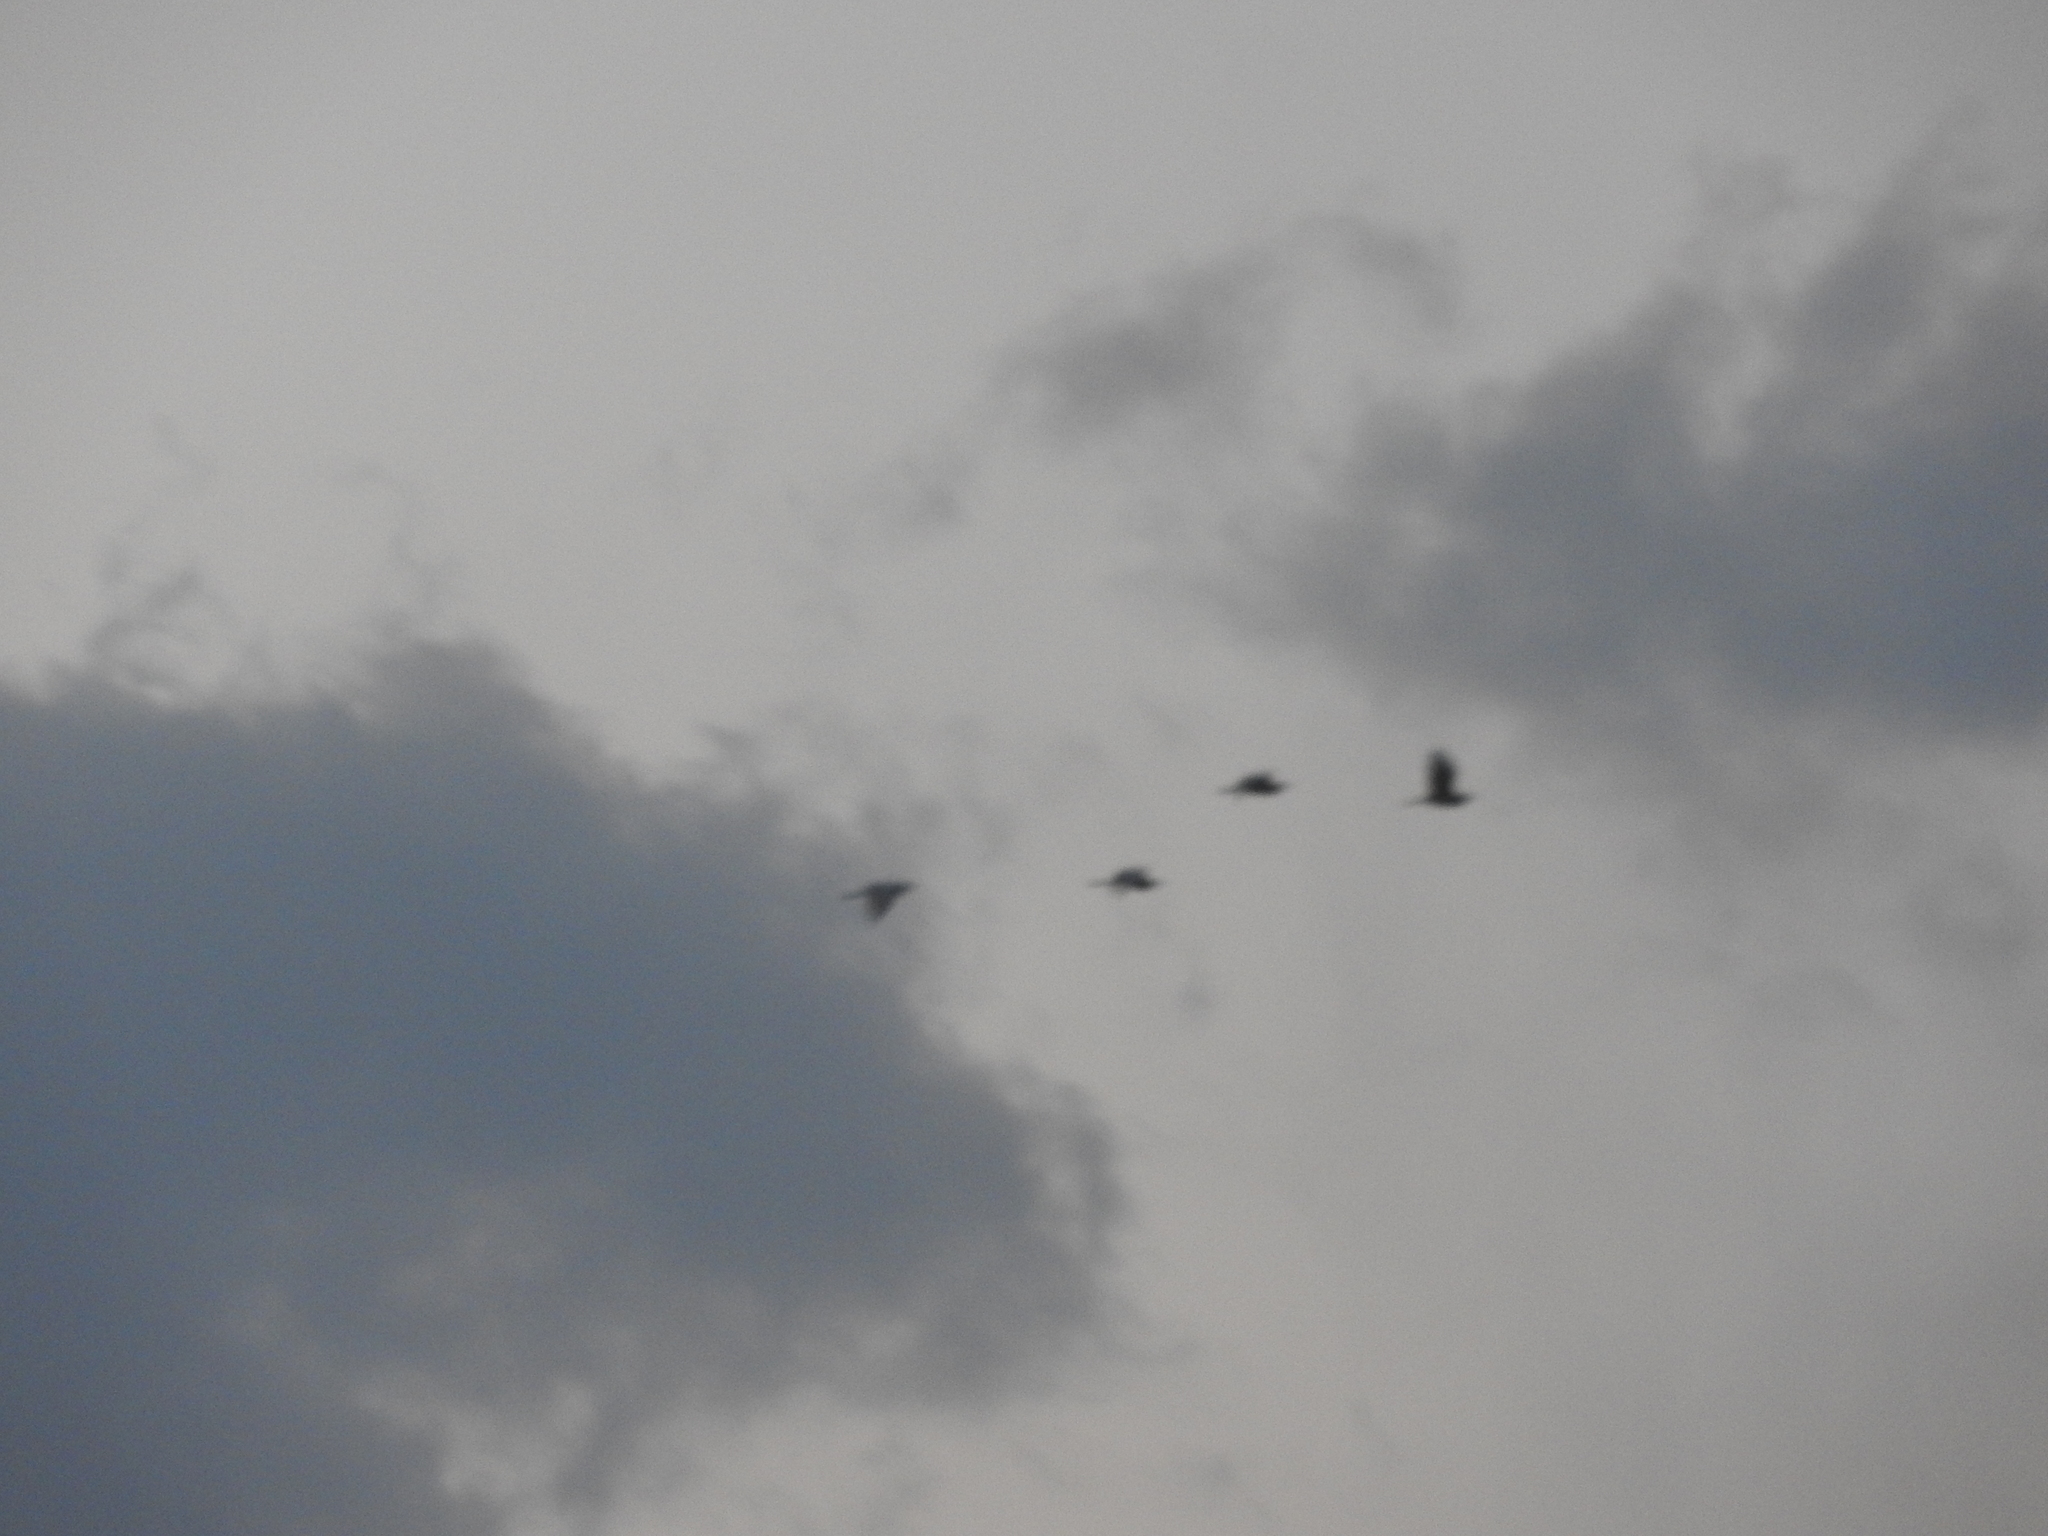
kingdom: Animalia
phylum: Chordata
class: Aves
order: Pelecaniformes
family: Ardeidae
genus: Bubulcus
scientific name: Bubulcus ibis
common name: Cattle egret
